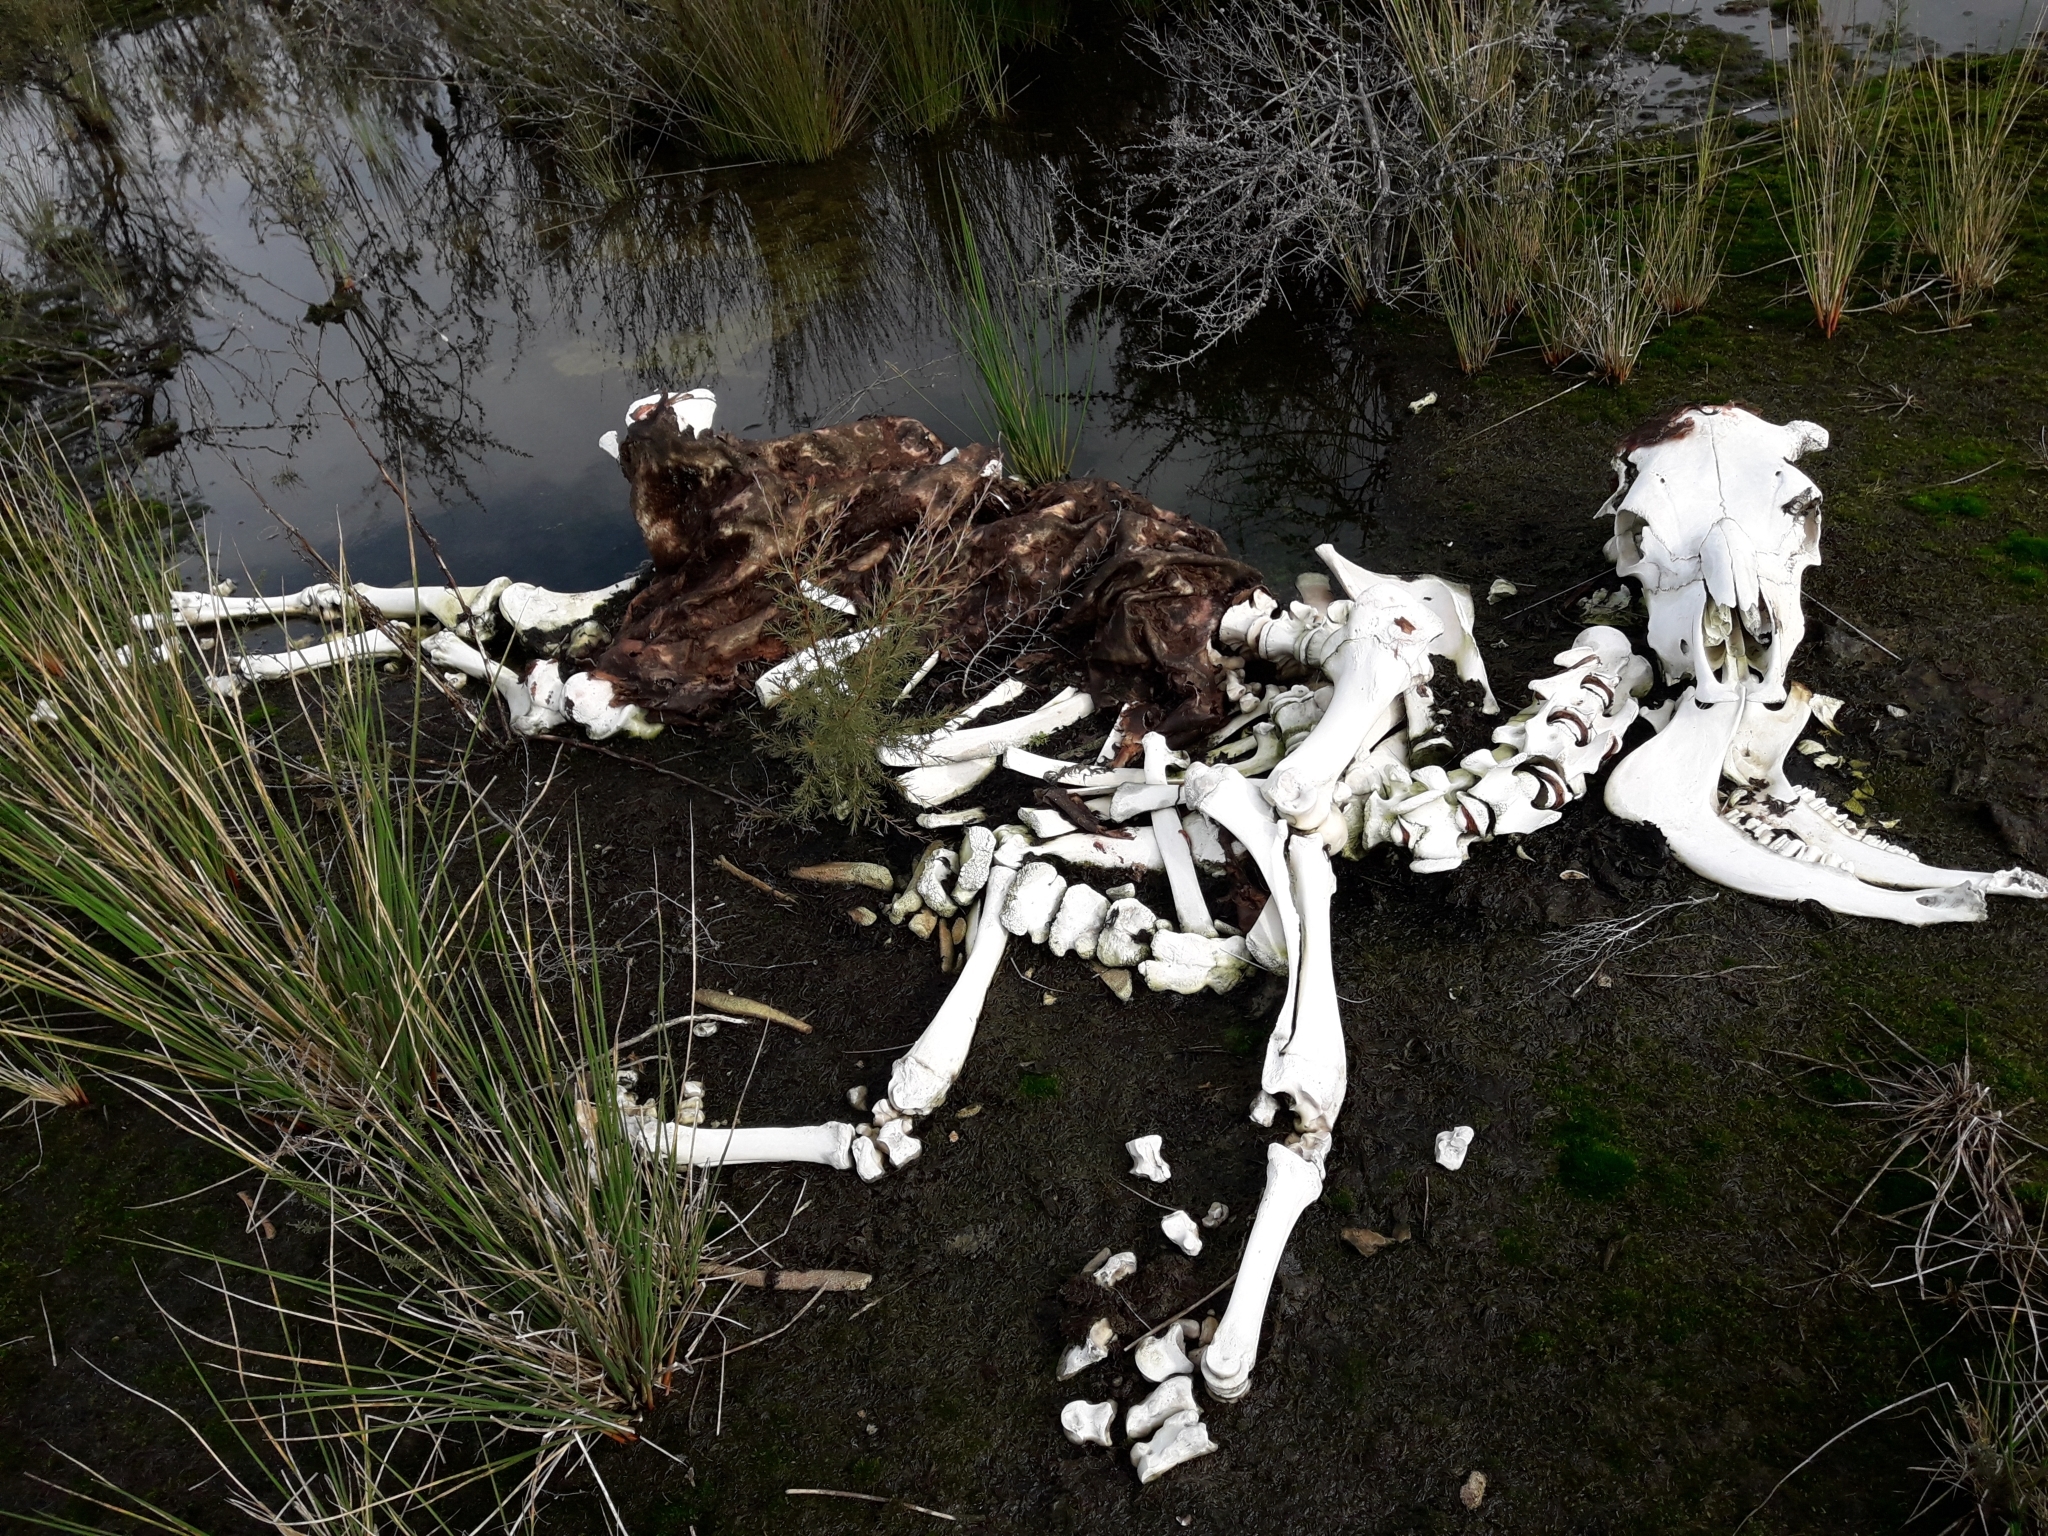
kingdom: Animalia
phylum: Chordata
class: Mammalia
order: Artiodactyla
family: Bovidae
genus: Bos
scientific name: Bos taurus
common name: Domesticated cattle
